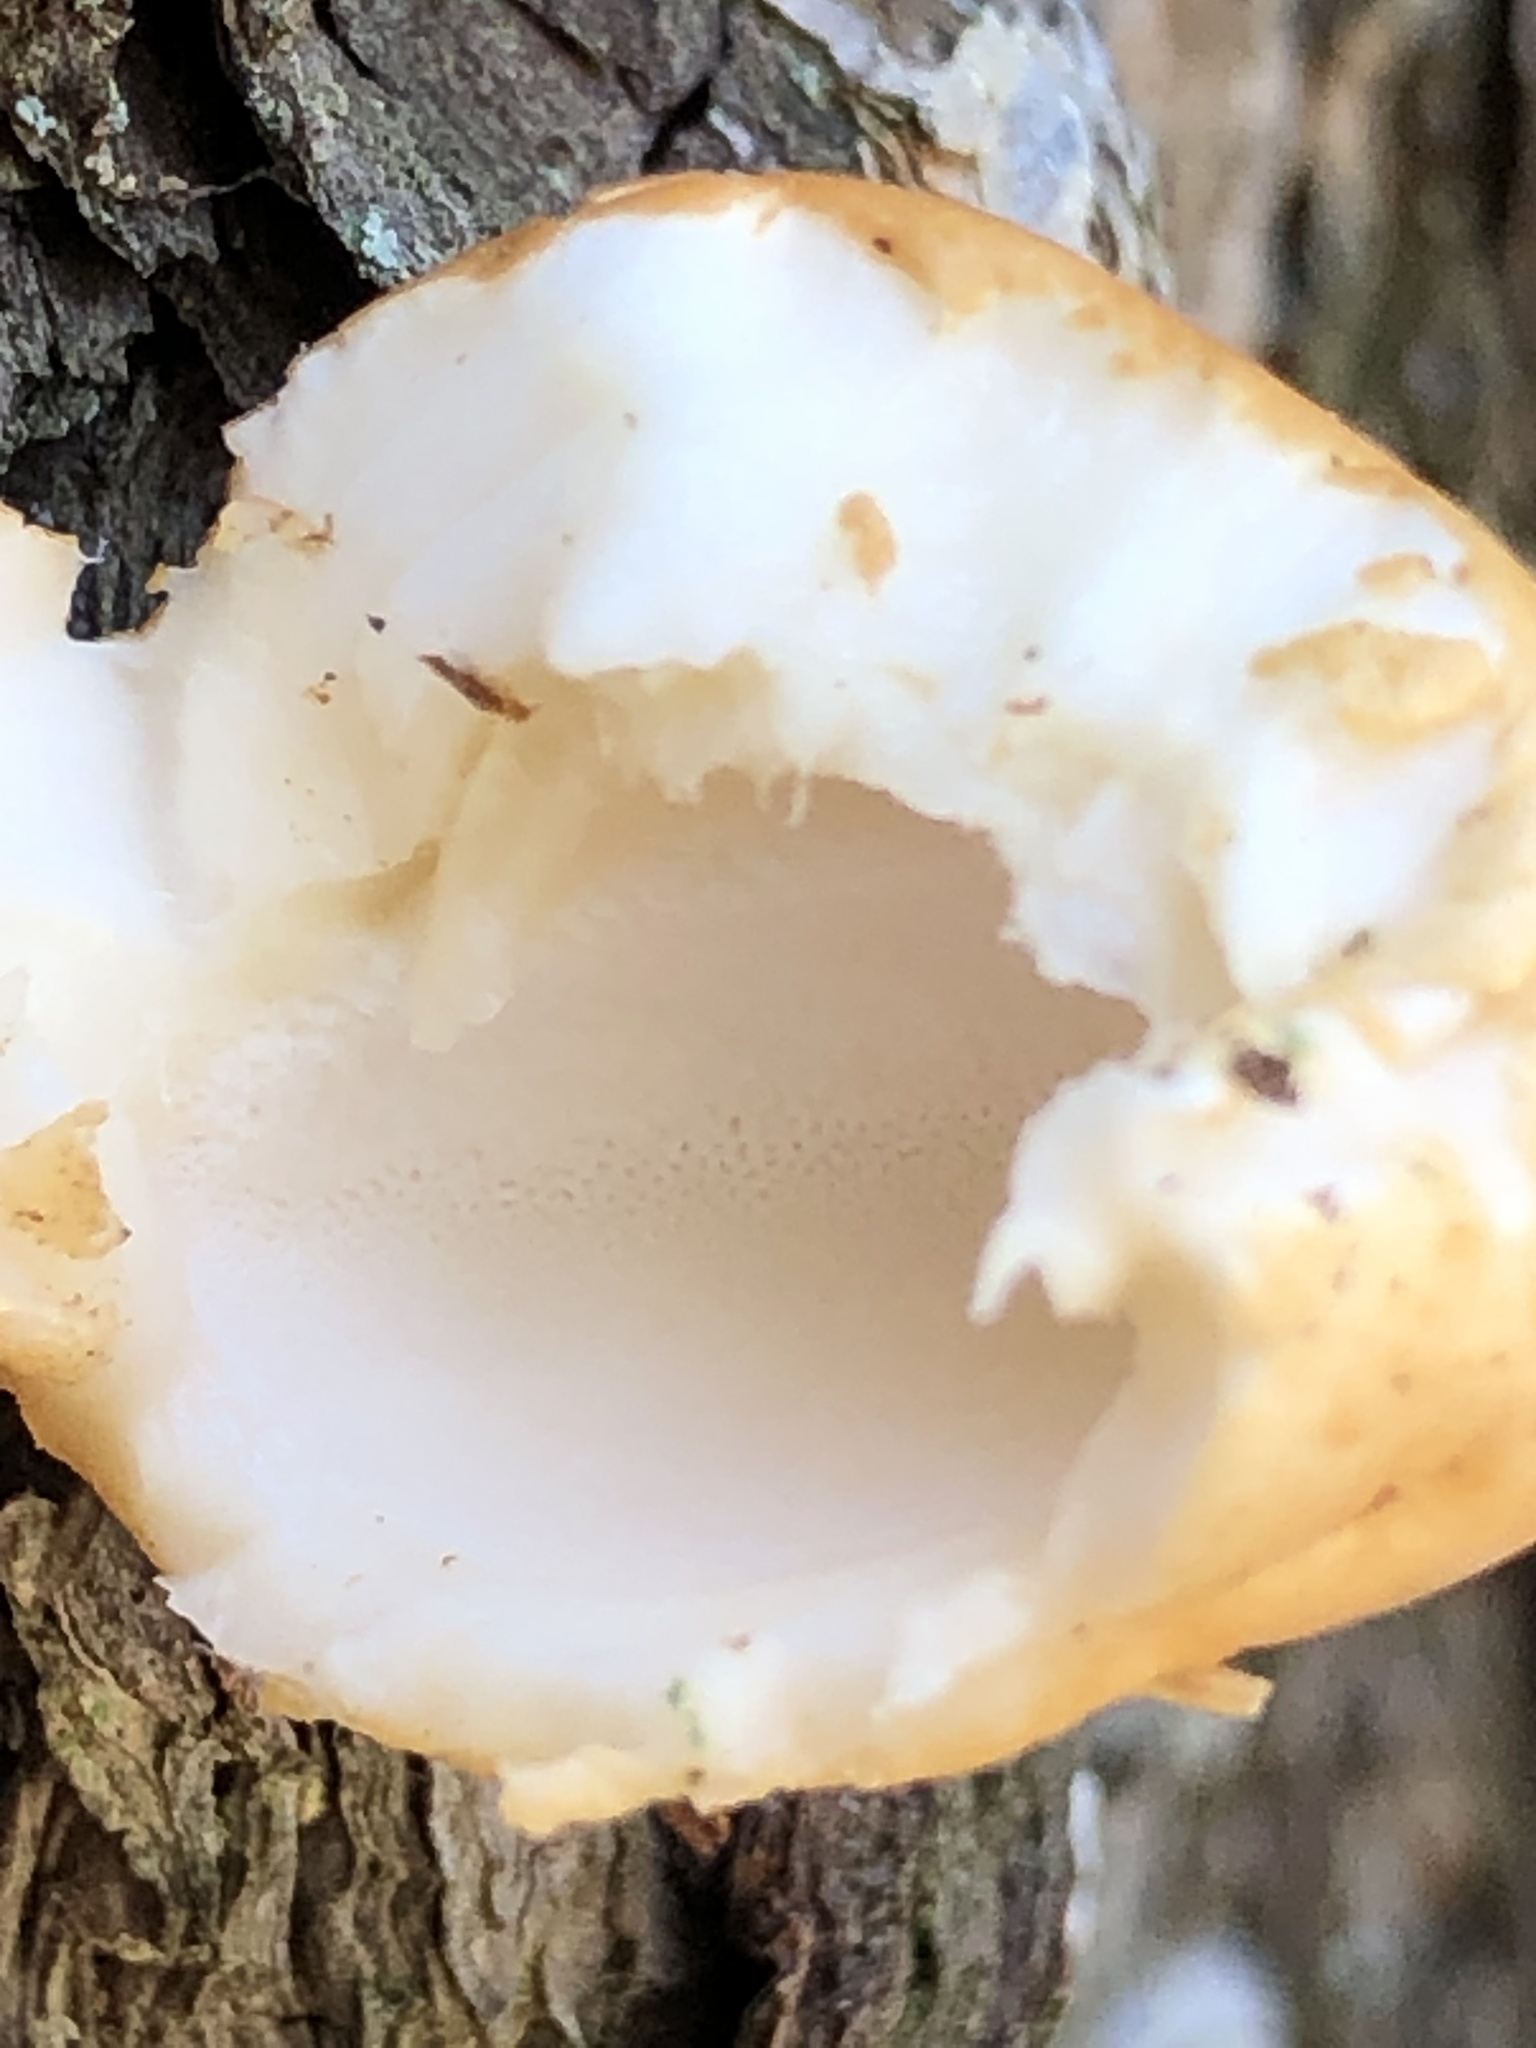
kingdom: Fungi
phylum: Basidiomycota
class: Agaricomycetes
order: Polyporales
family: Polyporaceae
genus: Cryptoporus
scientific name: Cryptoporus volvatus
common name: Veiled polypore
